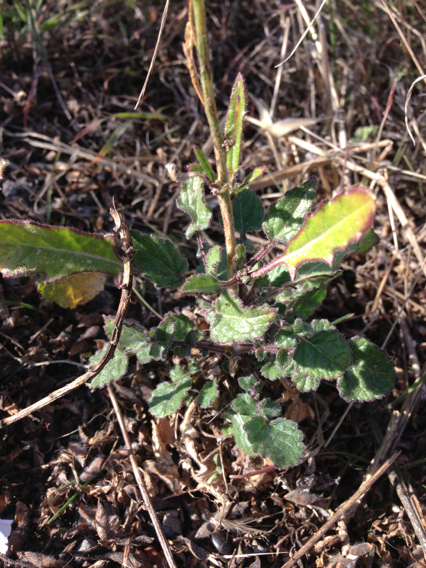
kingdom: Plantae
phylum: Tracheophyta
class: Magnoliopsida
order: Brassicales
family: Brassicaceae
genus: Hirschfeldia
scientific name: Hirschfeldia incana
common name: Hoary mustard
